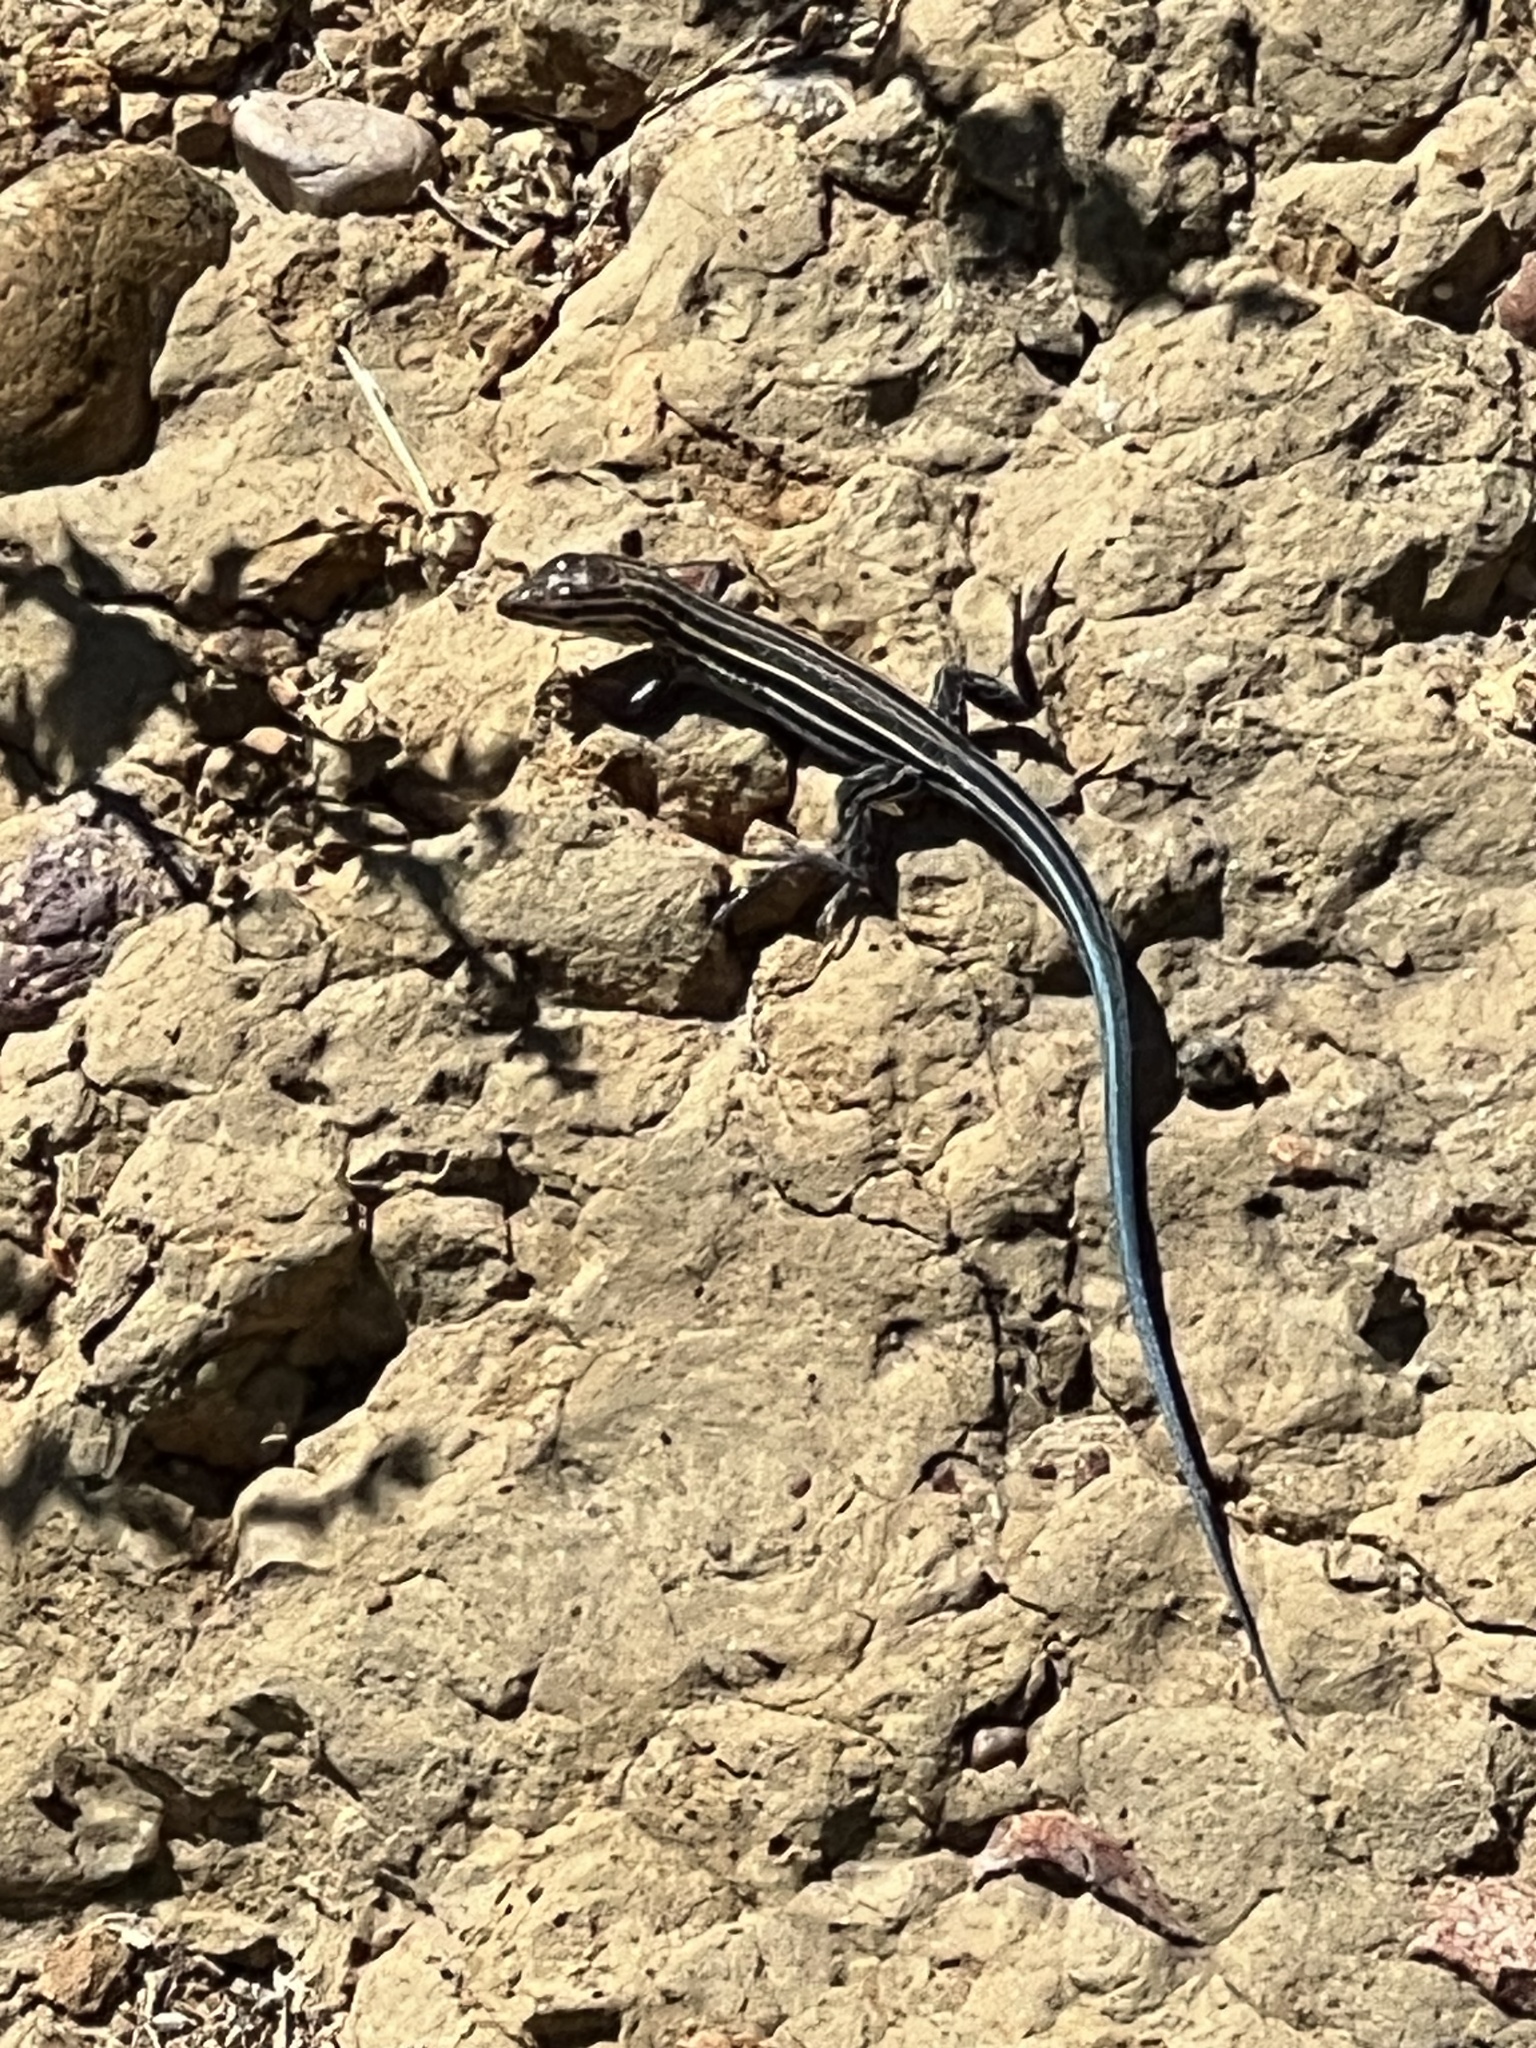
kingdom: Animalia
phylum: Chordata
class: Squamata
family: Teiidae
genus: Aspidoscelis
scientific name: Aspidoscelis hyperythrus
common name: Orange-throated race-runner
